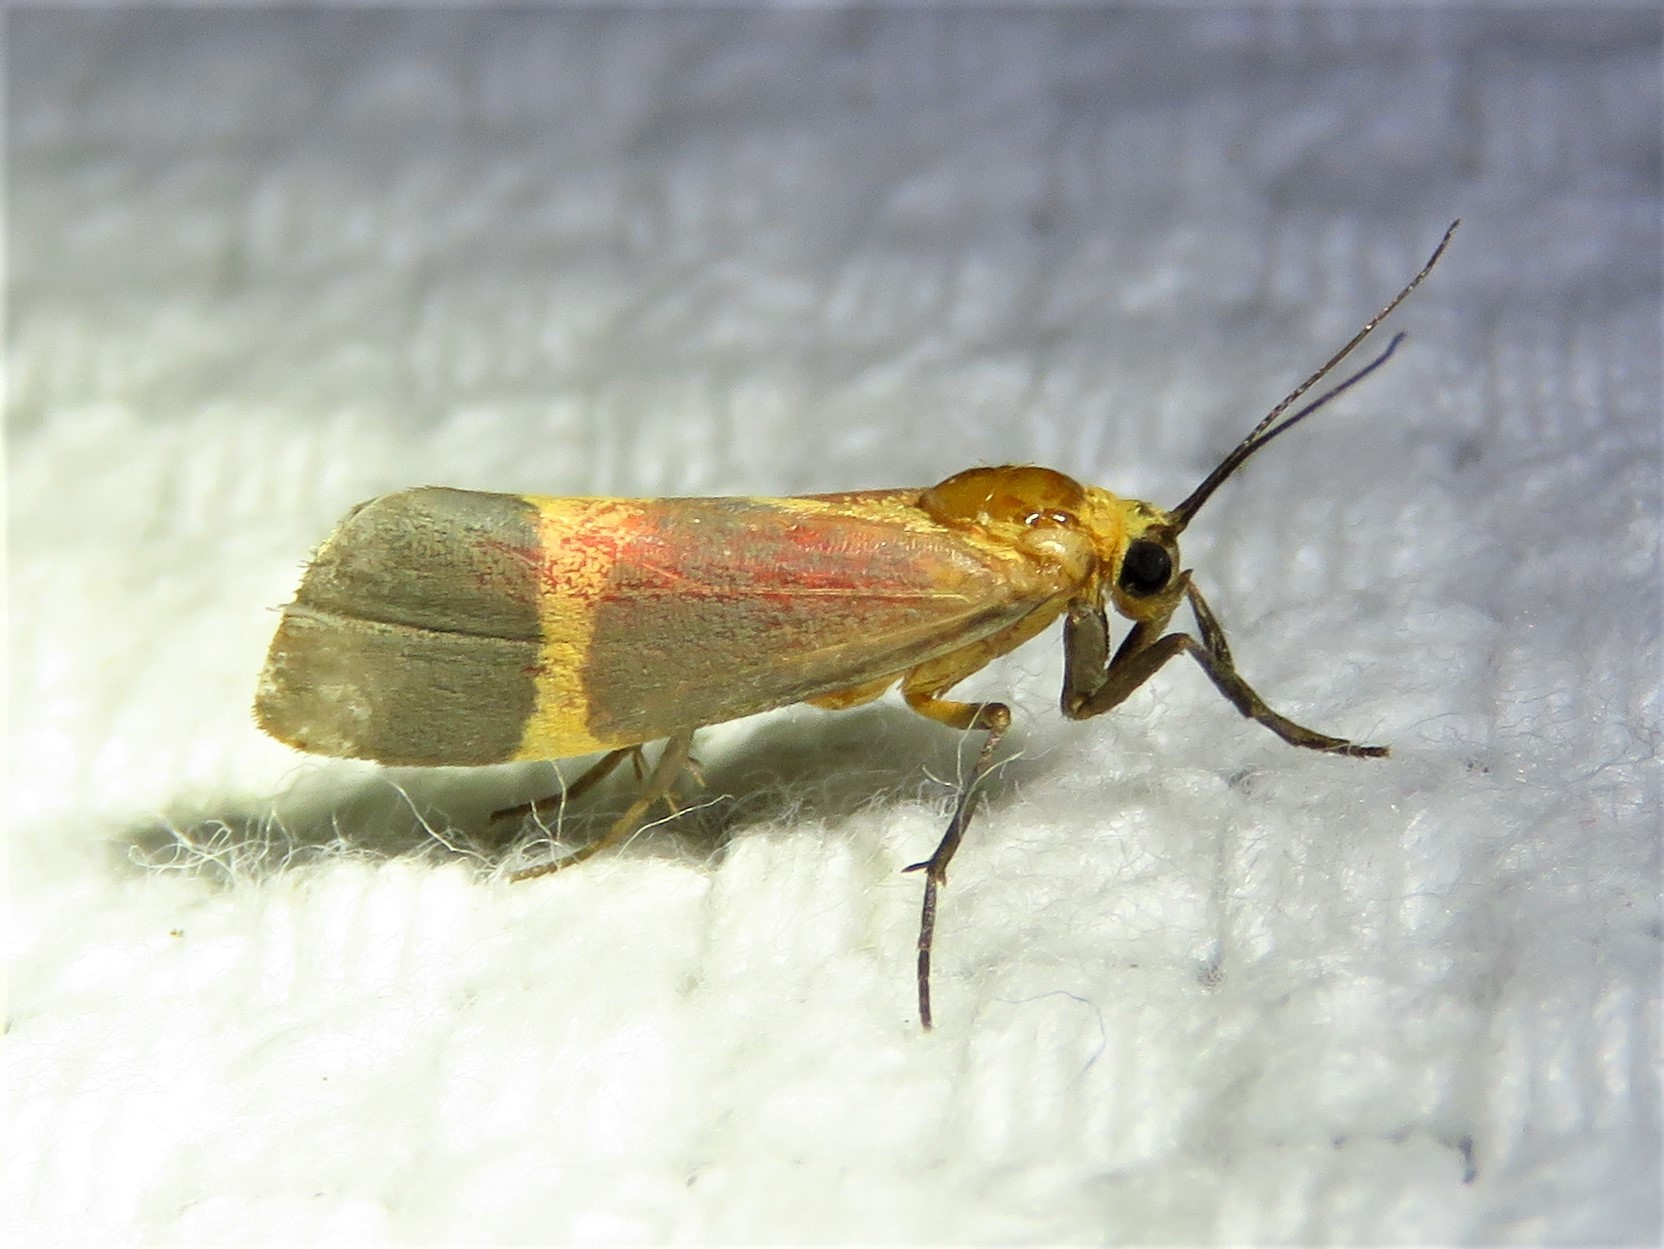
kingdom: Animalia
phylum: Arthropoda
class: Insecta
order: Lepidoptera
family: Erebidae
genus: Cisthene
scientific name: Cisthene tenuifascia
